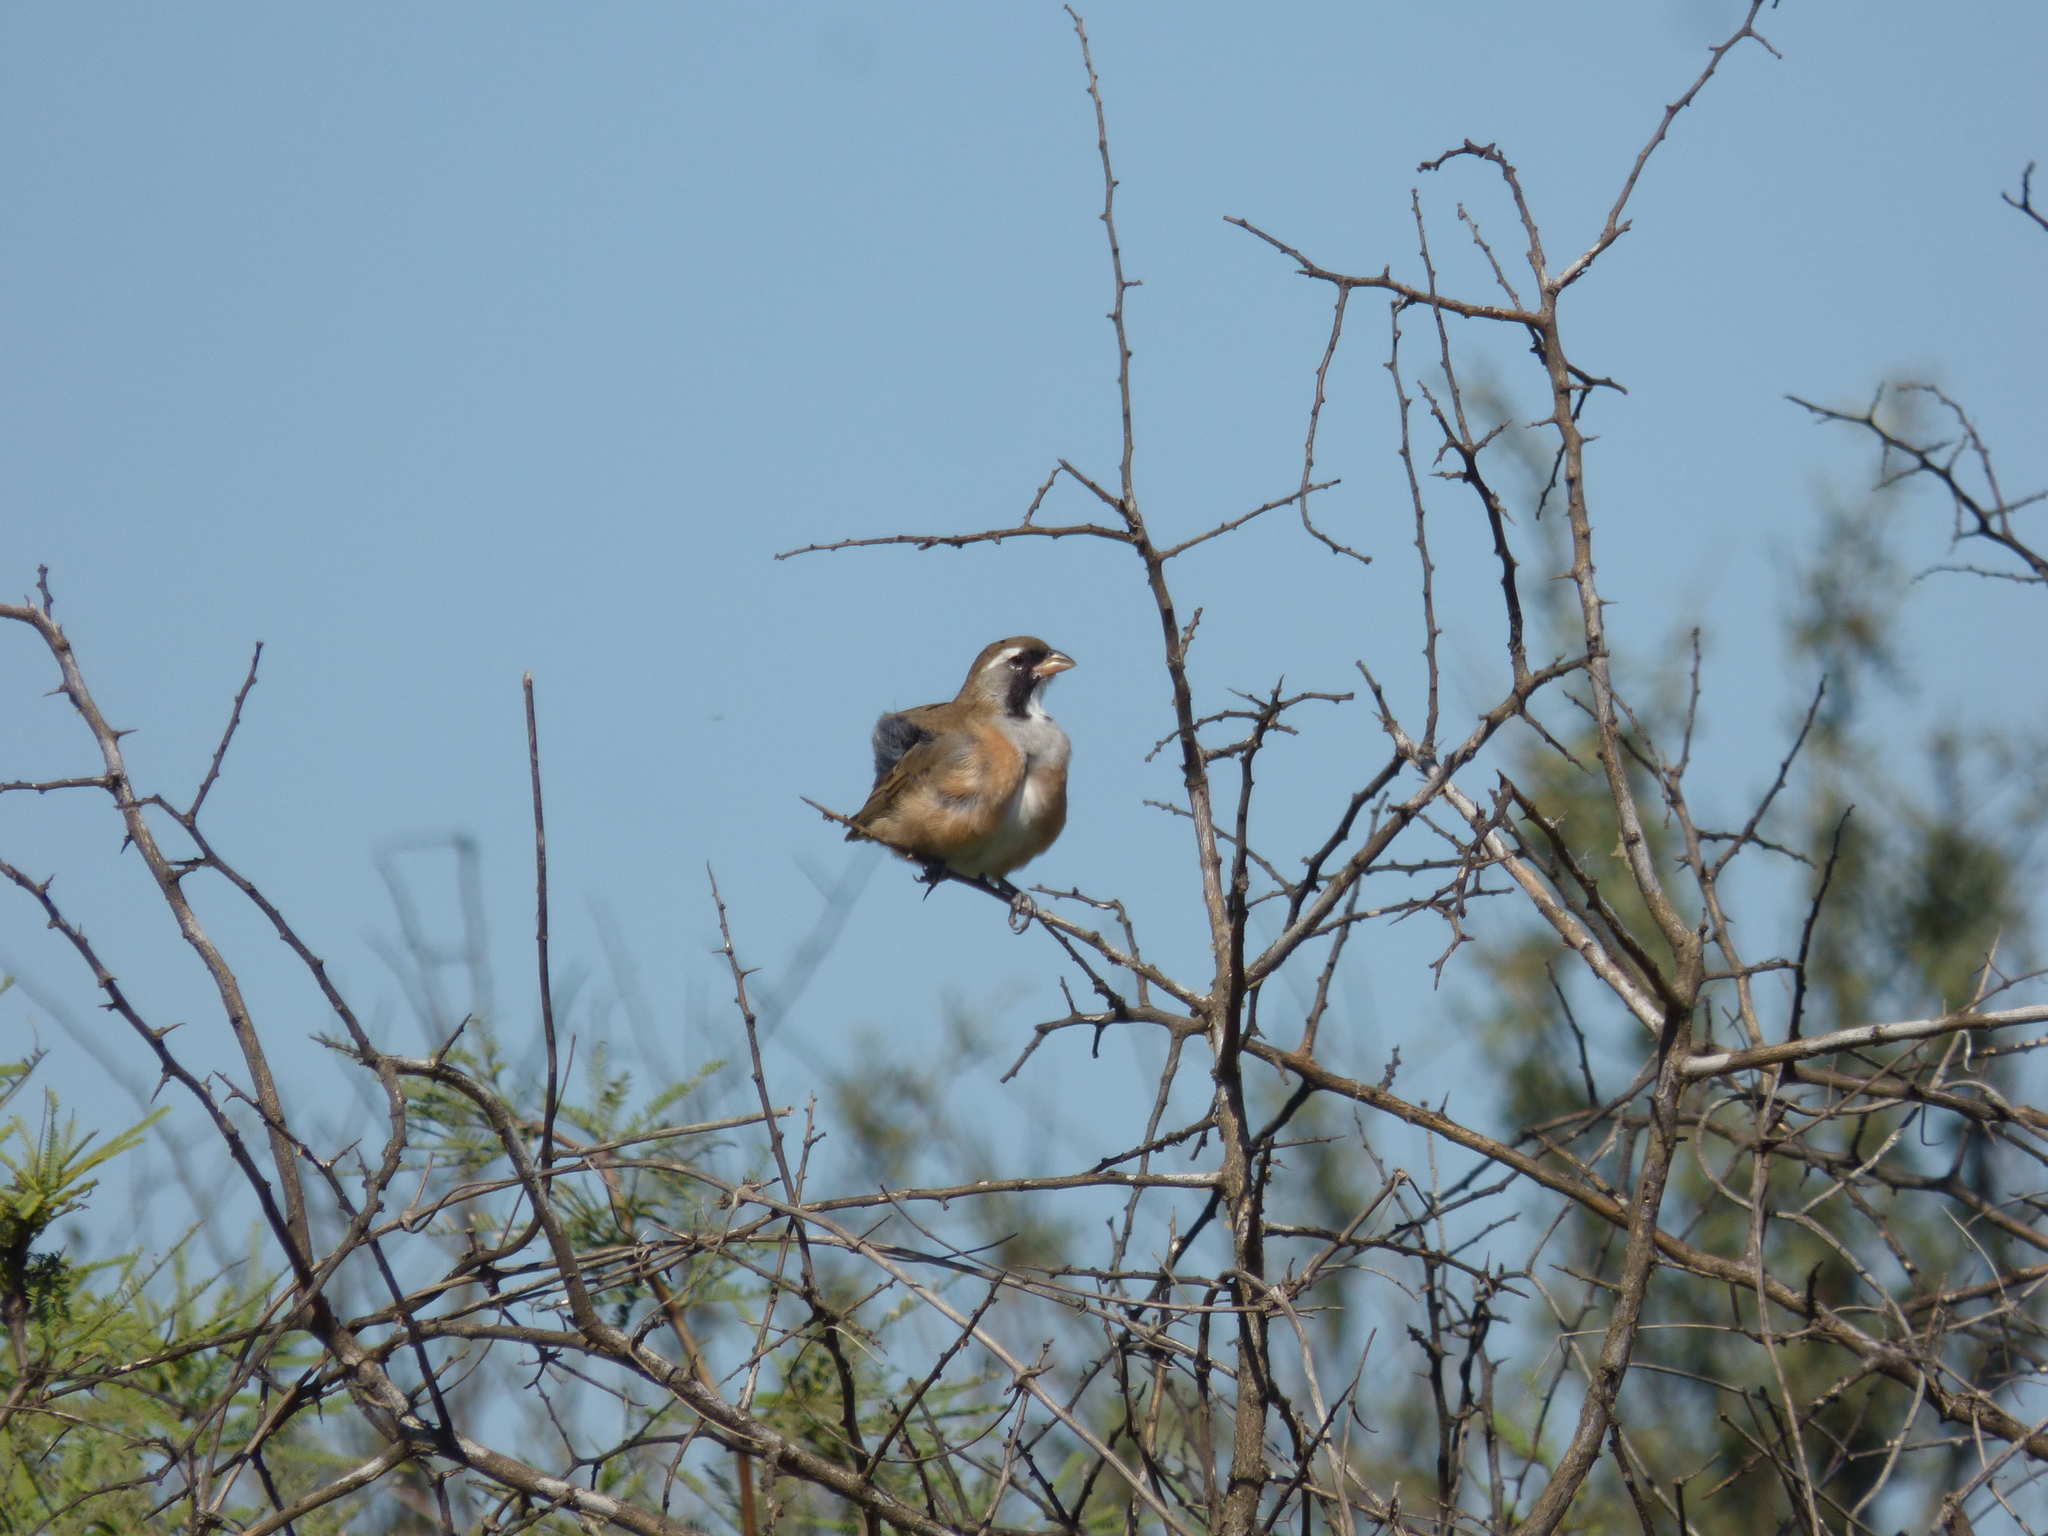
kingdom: Animalia
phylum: Chordata
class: Aves
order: Passeriformes
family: Thraupidae
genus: Saltatricula
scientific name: Saltatricula multicolor
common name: Many-colored chaco finch
